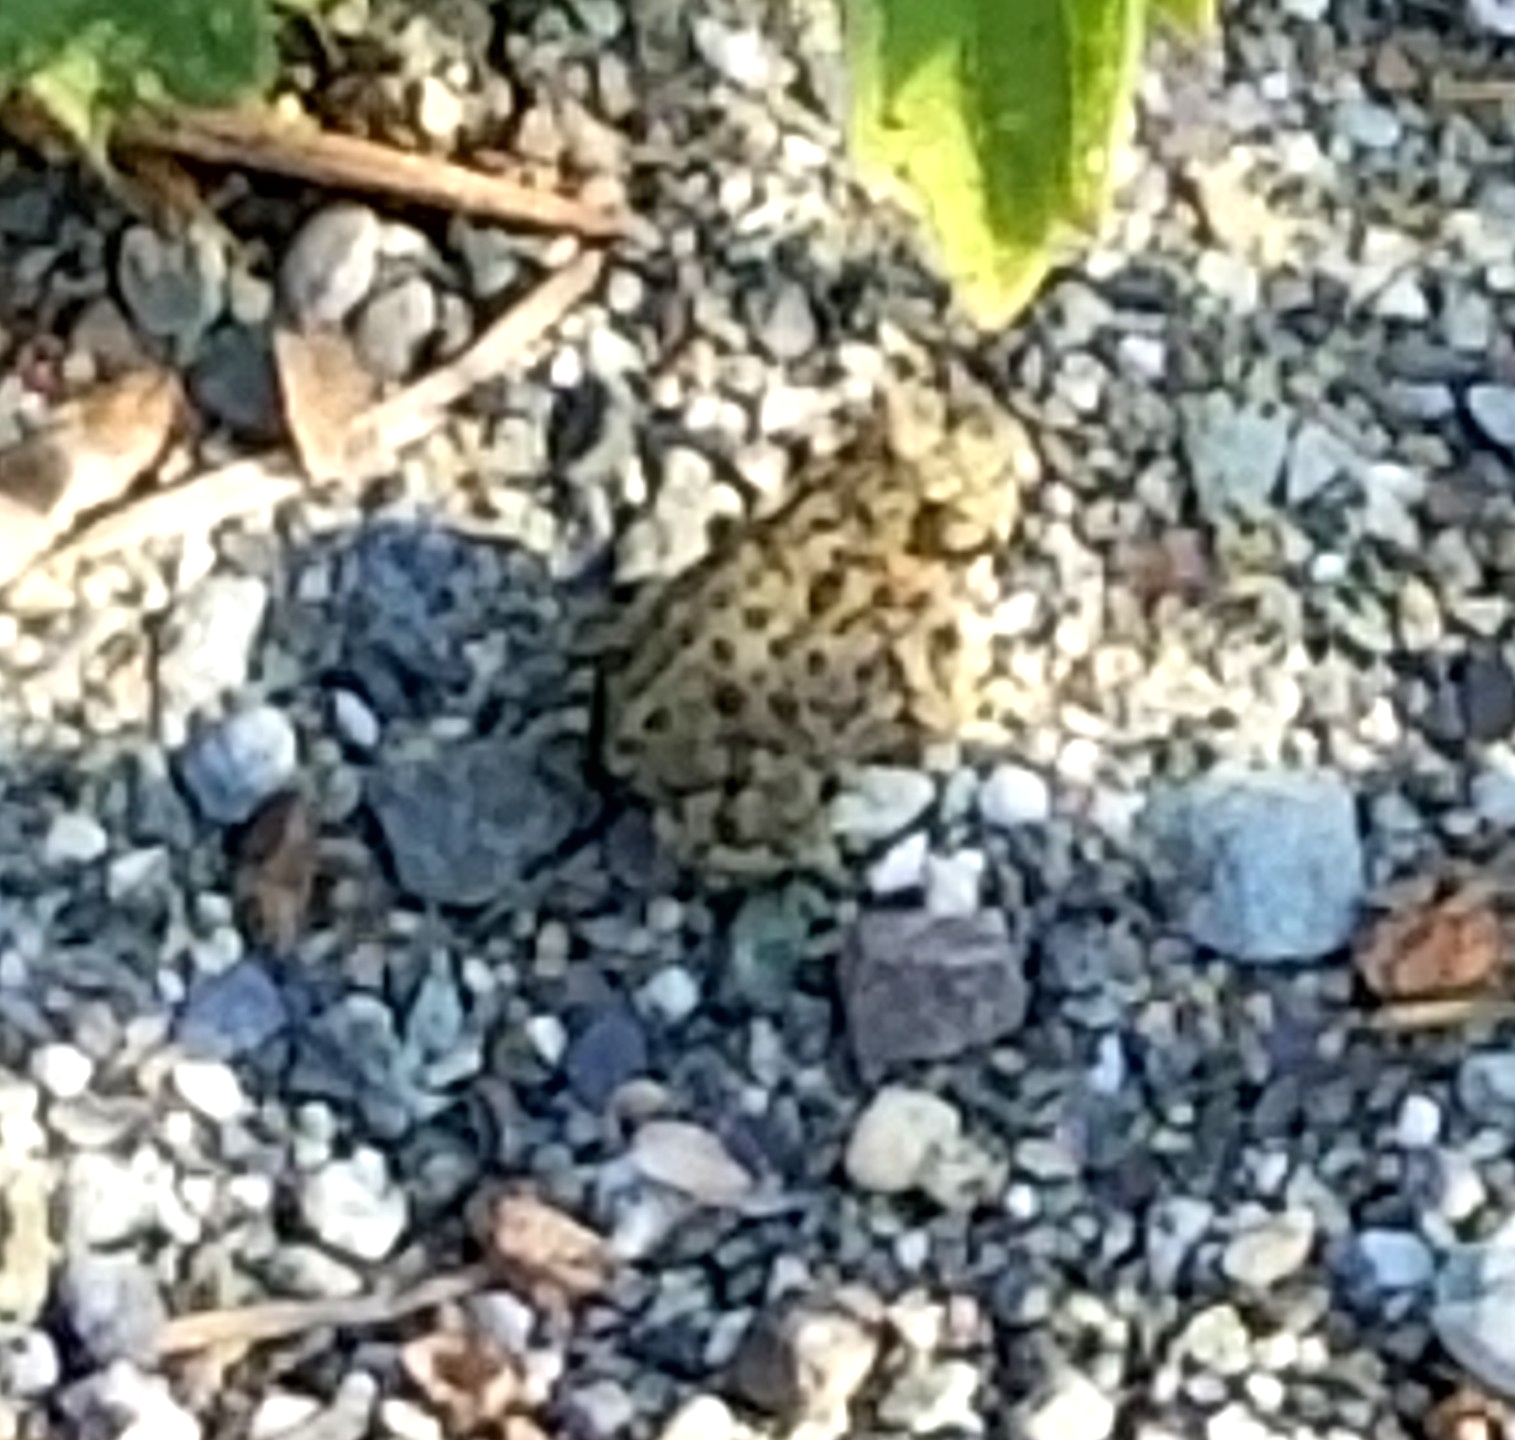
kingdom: Animalia
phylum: Chordata
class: Amphibia
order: Anura
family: Bufonidae
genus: Anaxyrus
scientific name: Anaxyrus boreas
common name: Western toad
